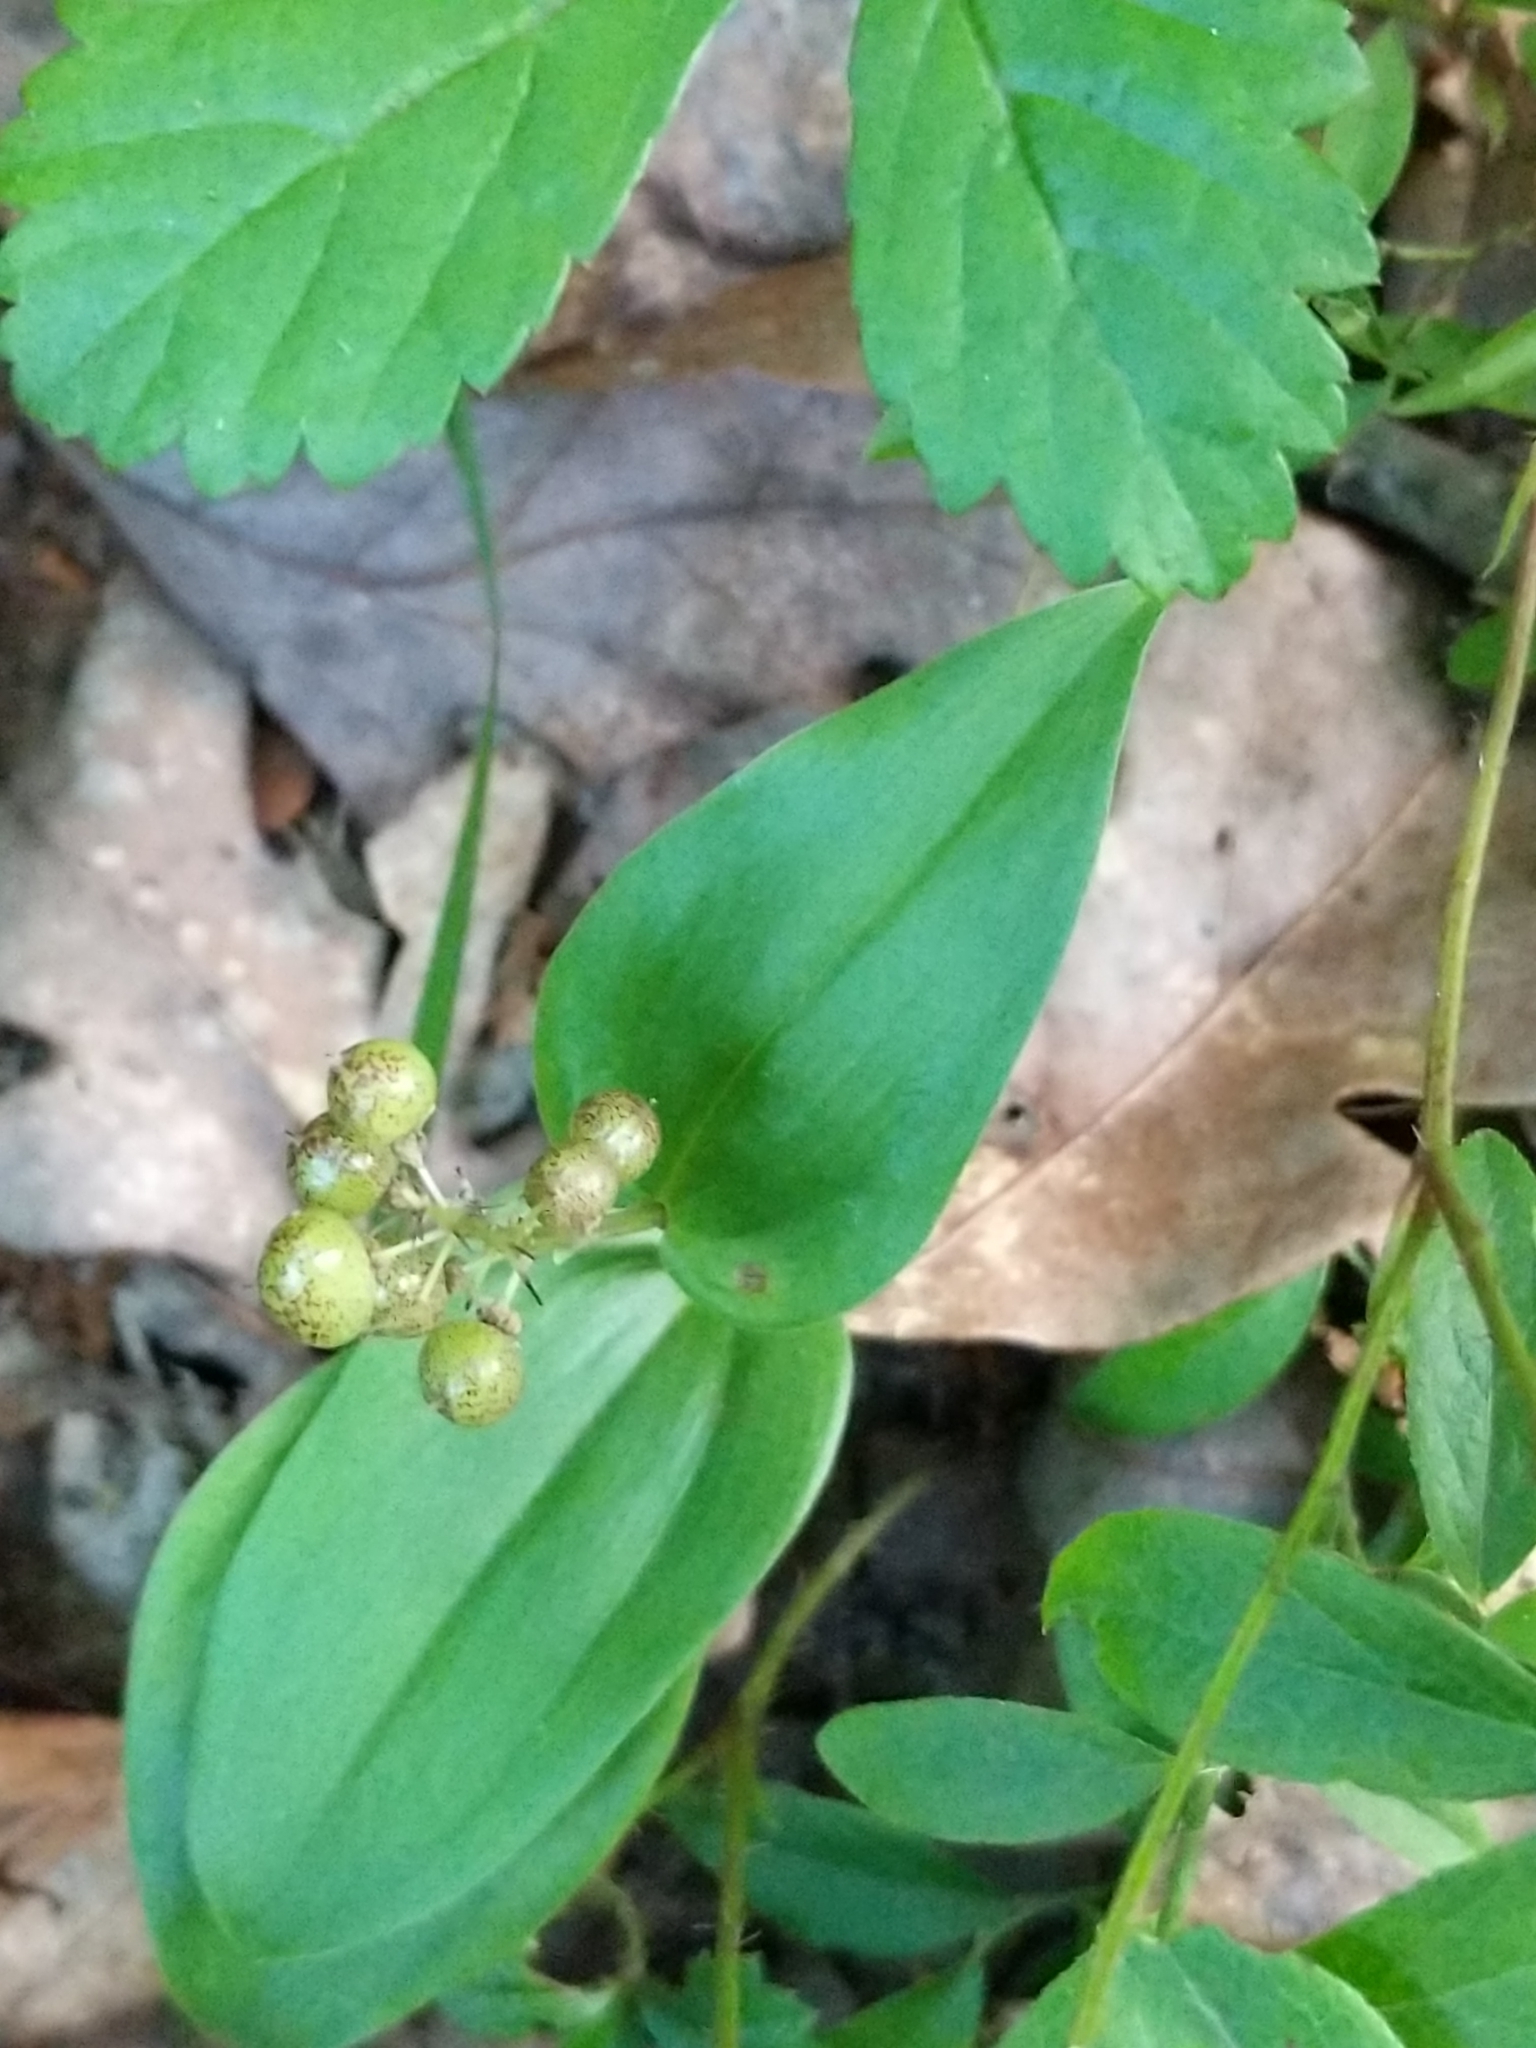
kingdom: Plantae
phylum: Tracheophyta
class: Liliopsida
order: Asparagales
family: Asparagaceae
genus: Maianthemum
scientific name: Maianthemum canadense
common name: False lily-of-the-valley
